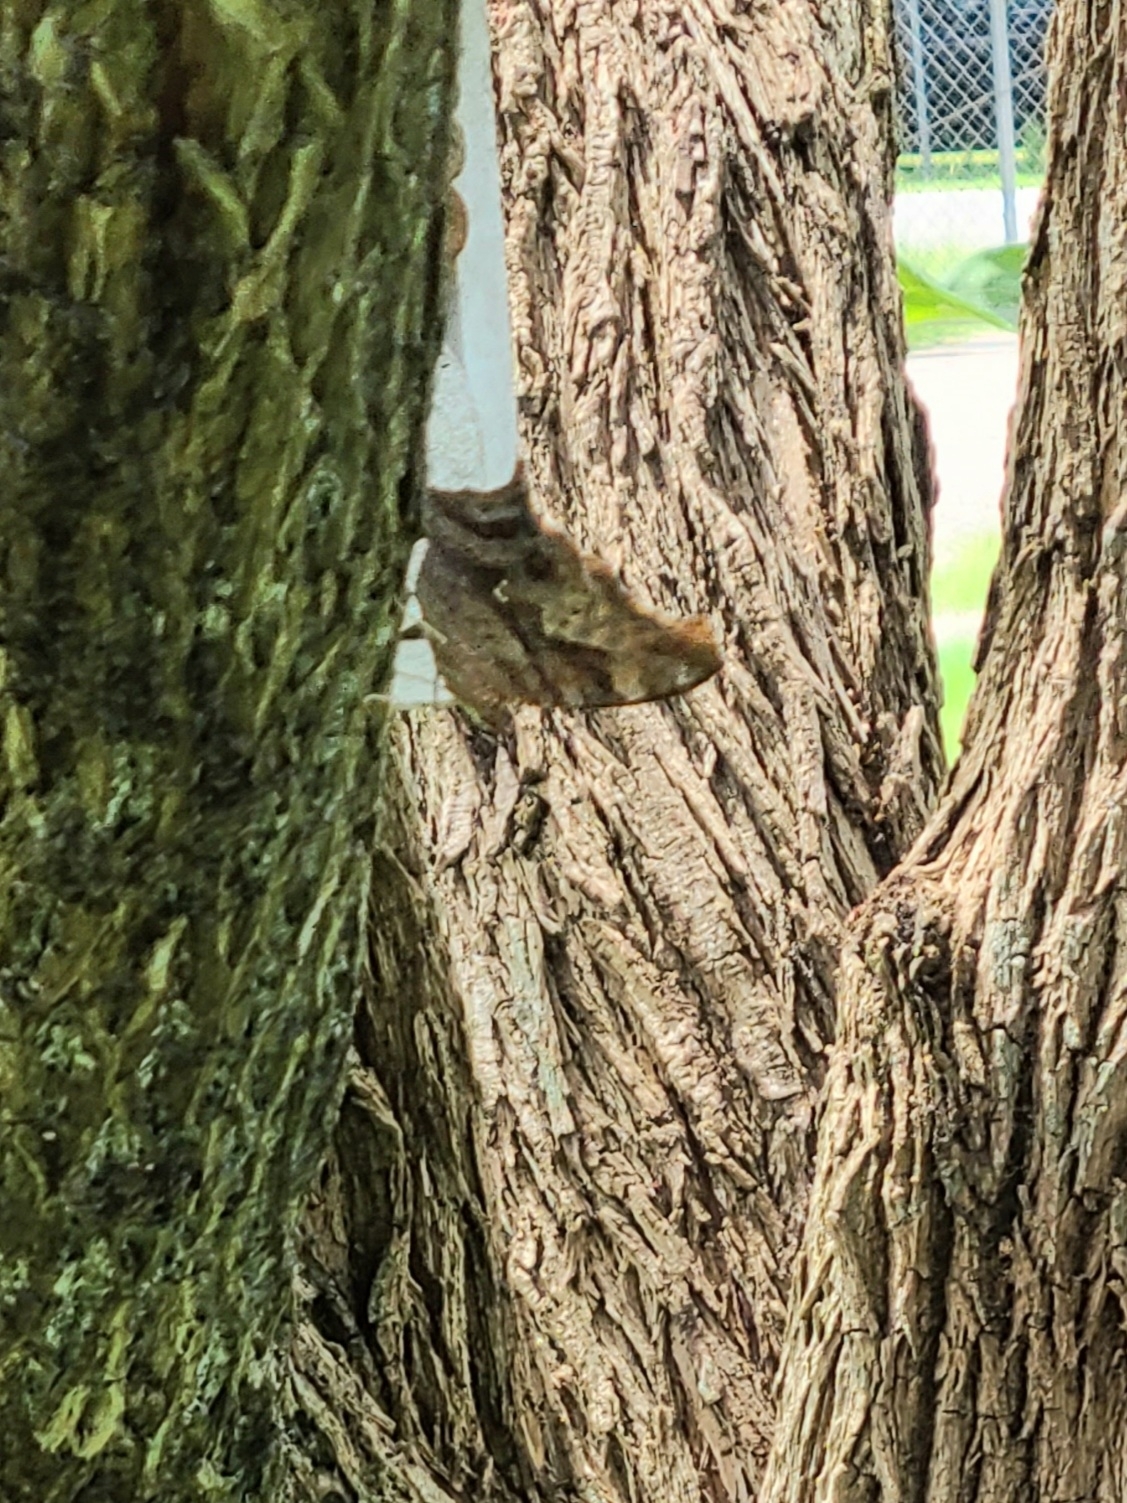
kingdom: Animalia
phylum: Arthropoda
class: Insecta
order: Lepidoptera
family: Nymphalidae
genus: Polygonia
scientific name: Polygonia interrogationis
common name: Question mark
